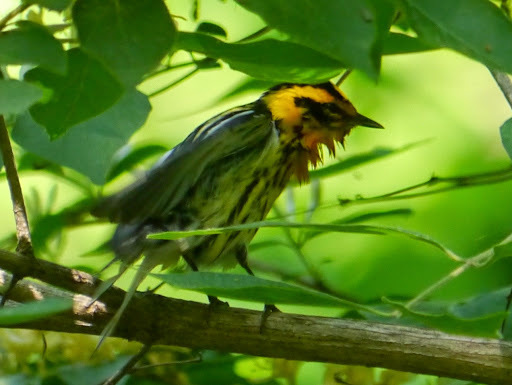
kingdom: Animalia
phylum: Chordata
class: Aves
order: Passeriformes
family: Parulidae
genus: Setophaga
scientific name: Setophaga fusca
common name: Blackburnian warbler
